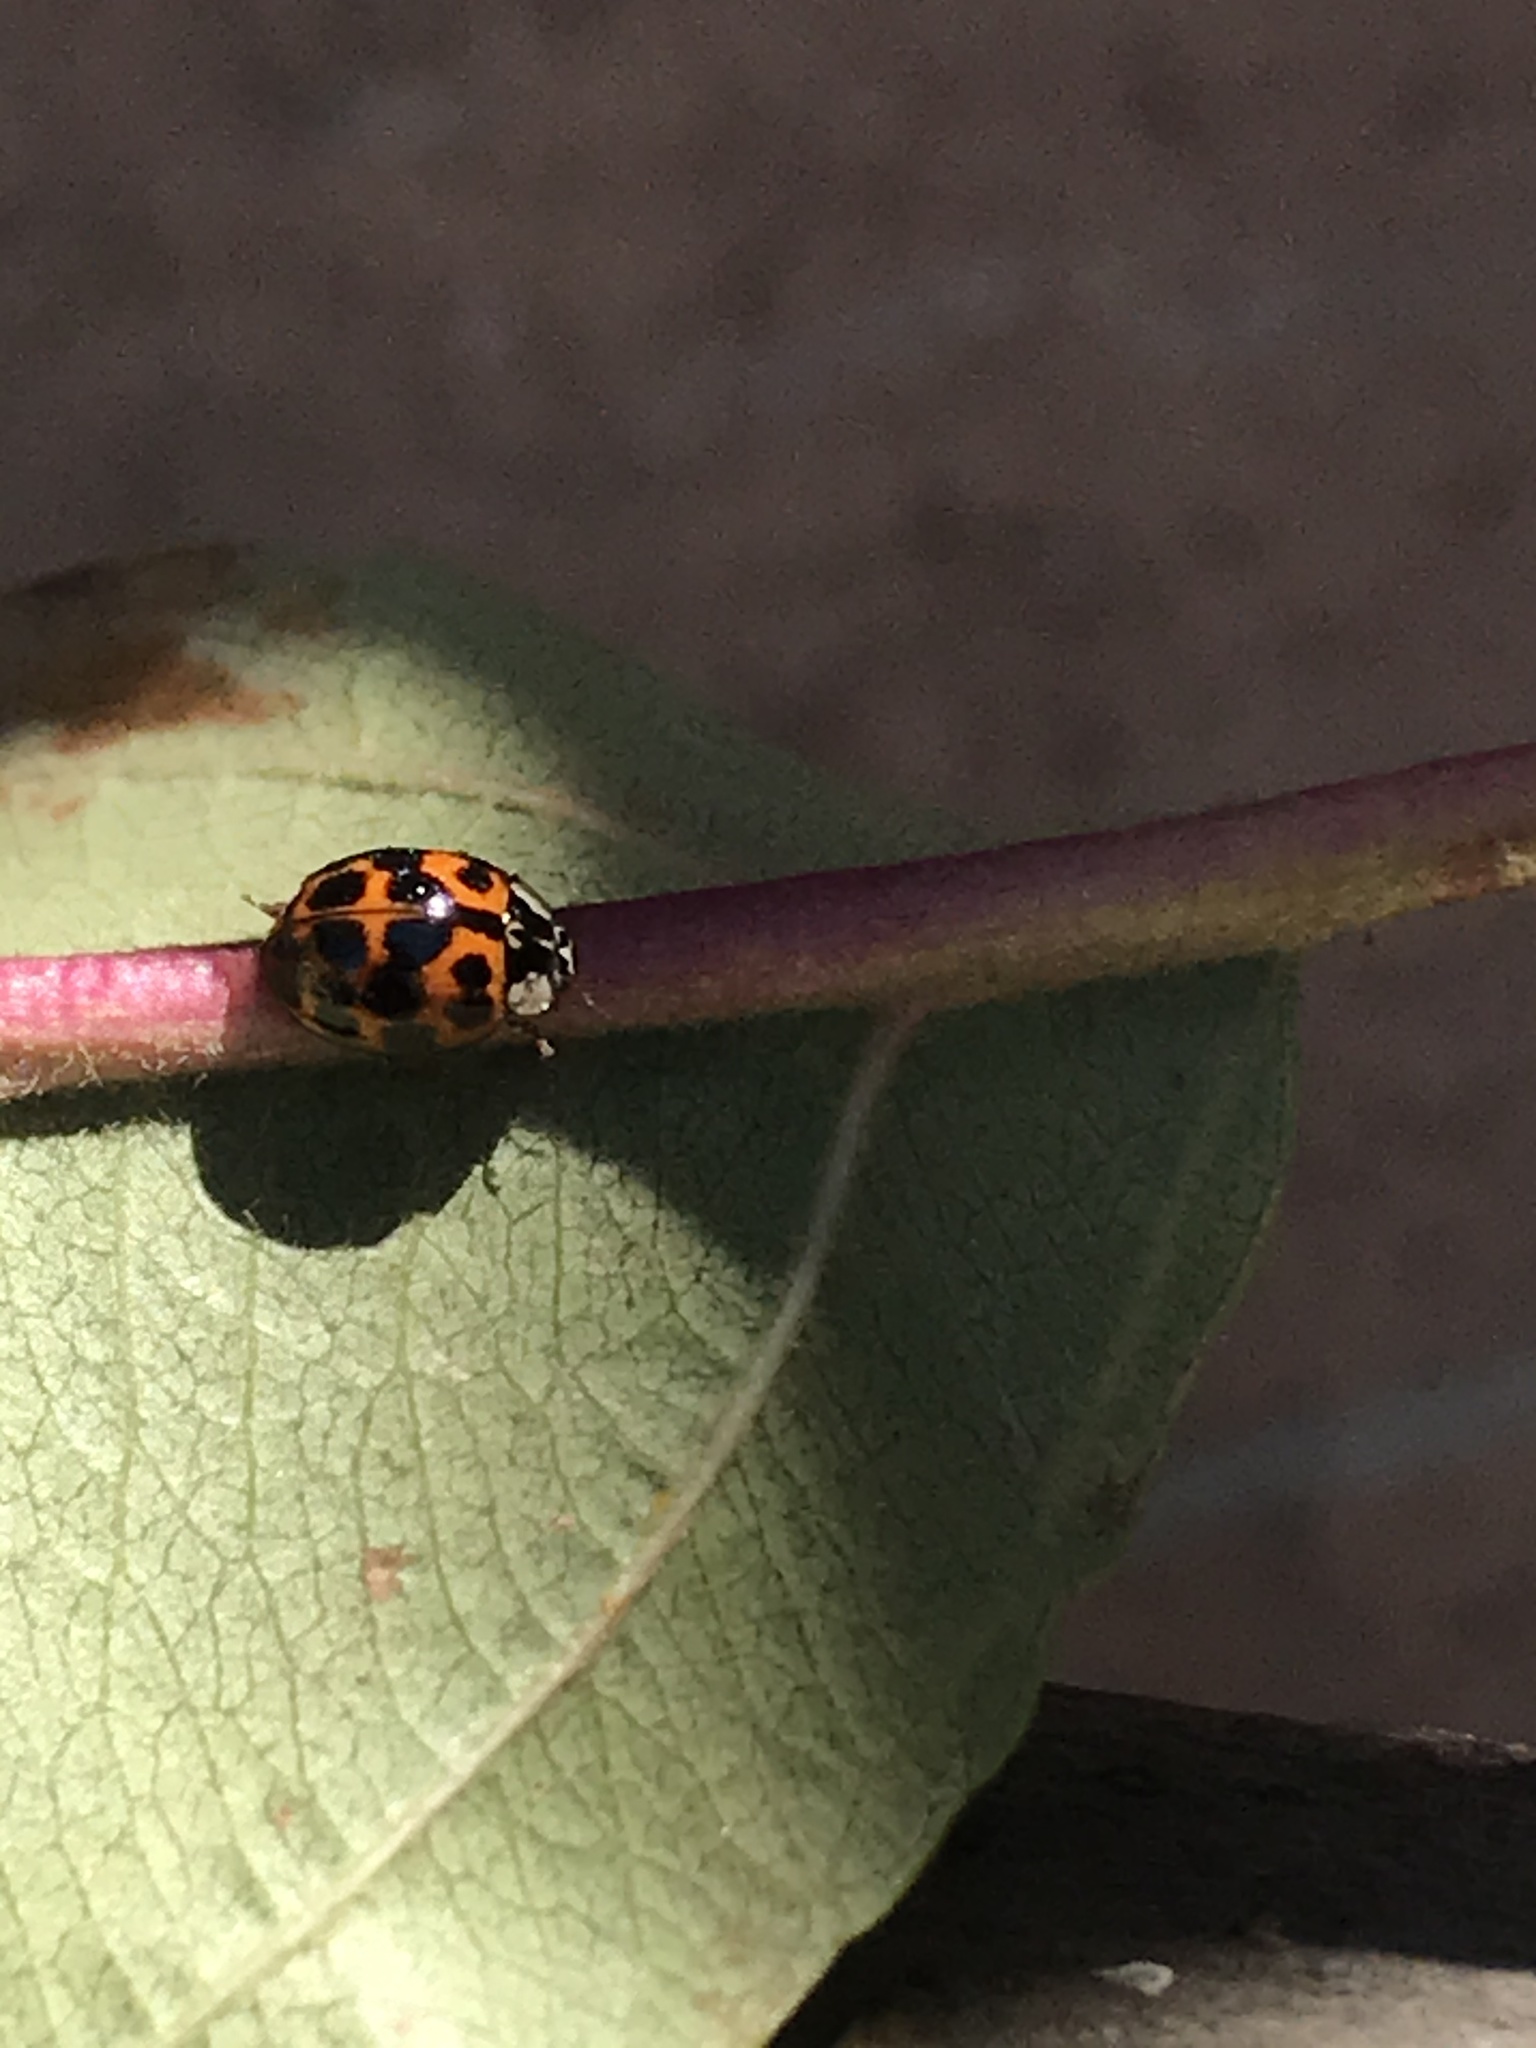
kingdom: Animalia
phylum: Arthropoda
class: Insecta
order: Coleoptera
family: Coccinellidae
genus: Harmonia
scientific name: Harmonia axyridis
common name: Harlequin ladybird
